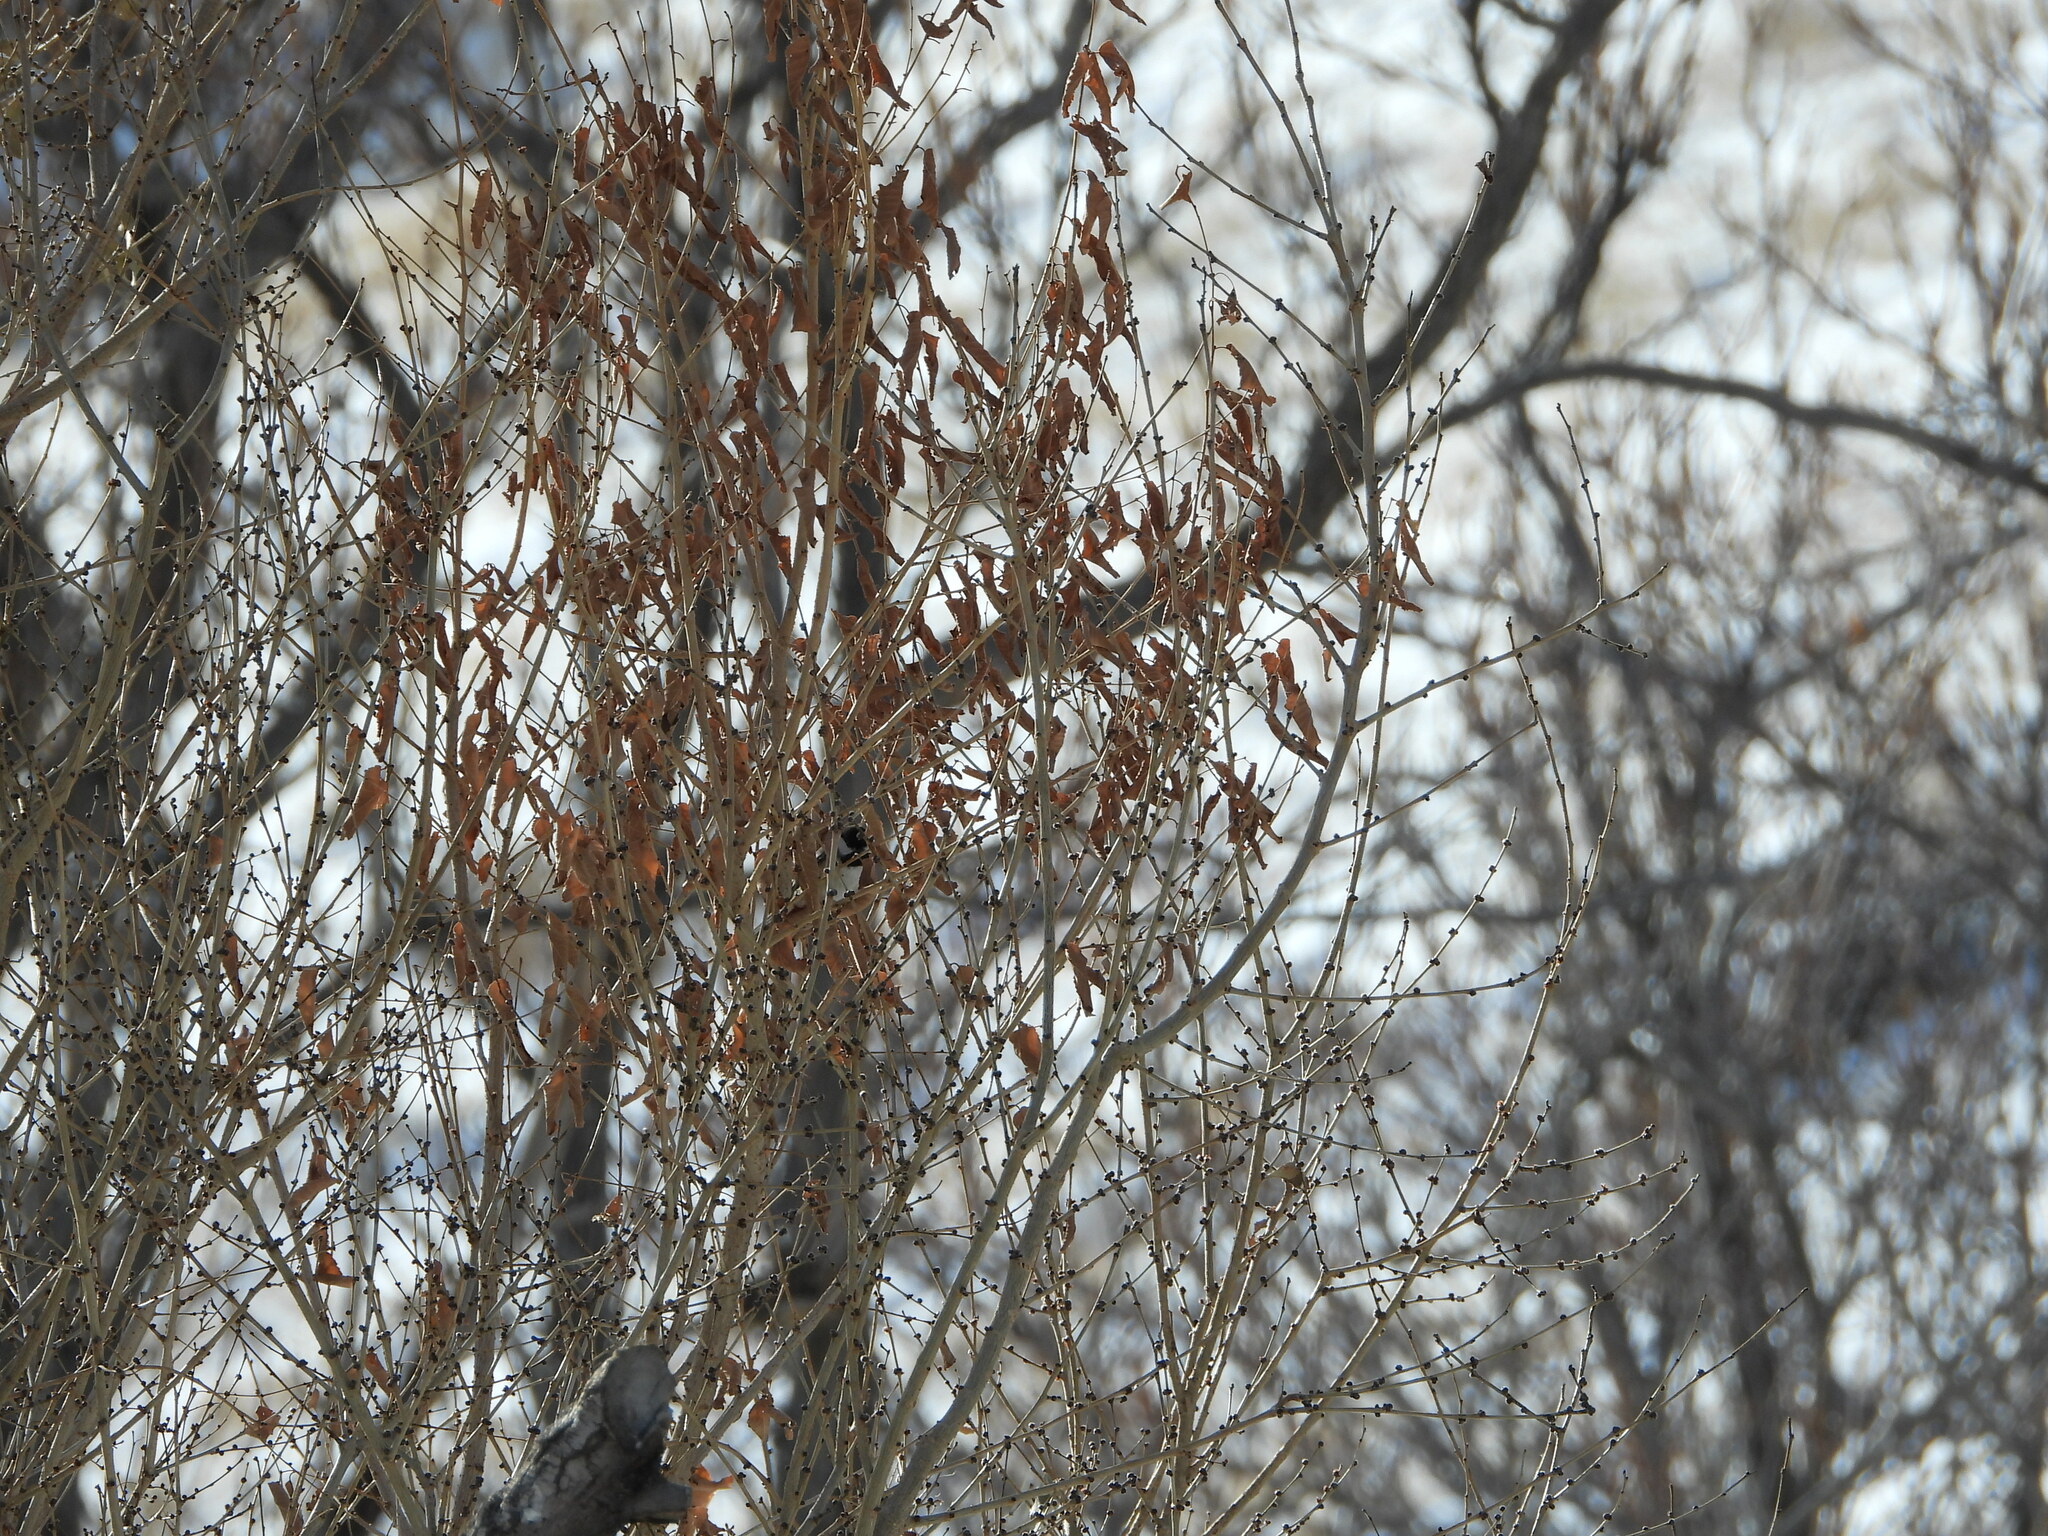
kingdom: Animalia
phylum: Chordata
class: Aves
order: Passeriformes
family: Paridae
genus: Poecile
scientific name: Poecile atricapillus
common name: Black-capped chickadee
